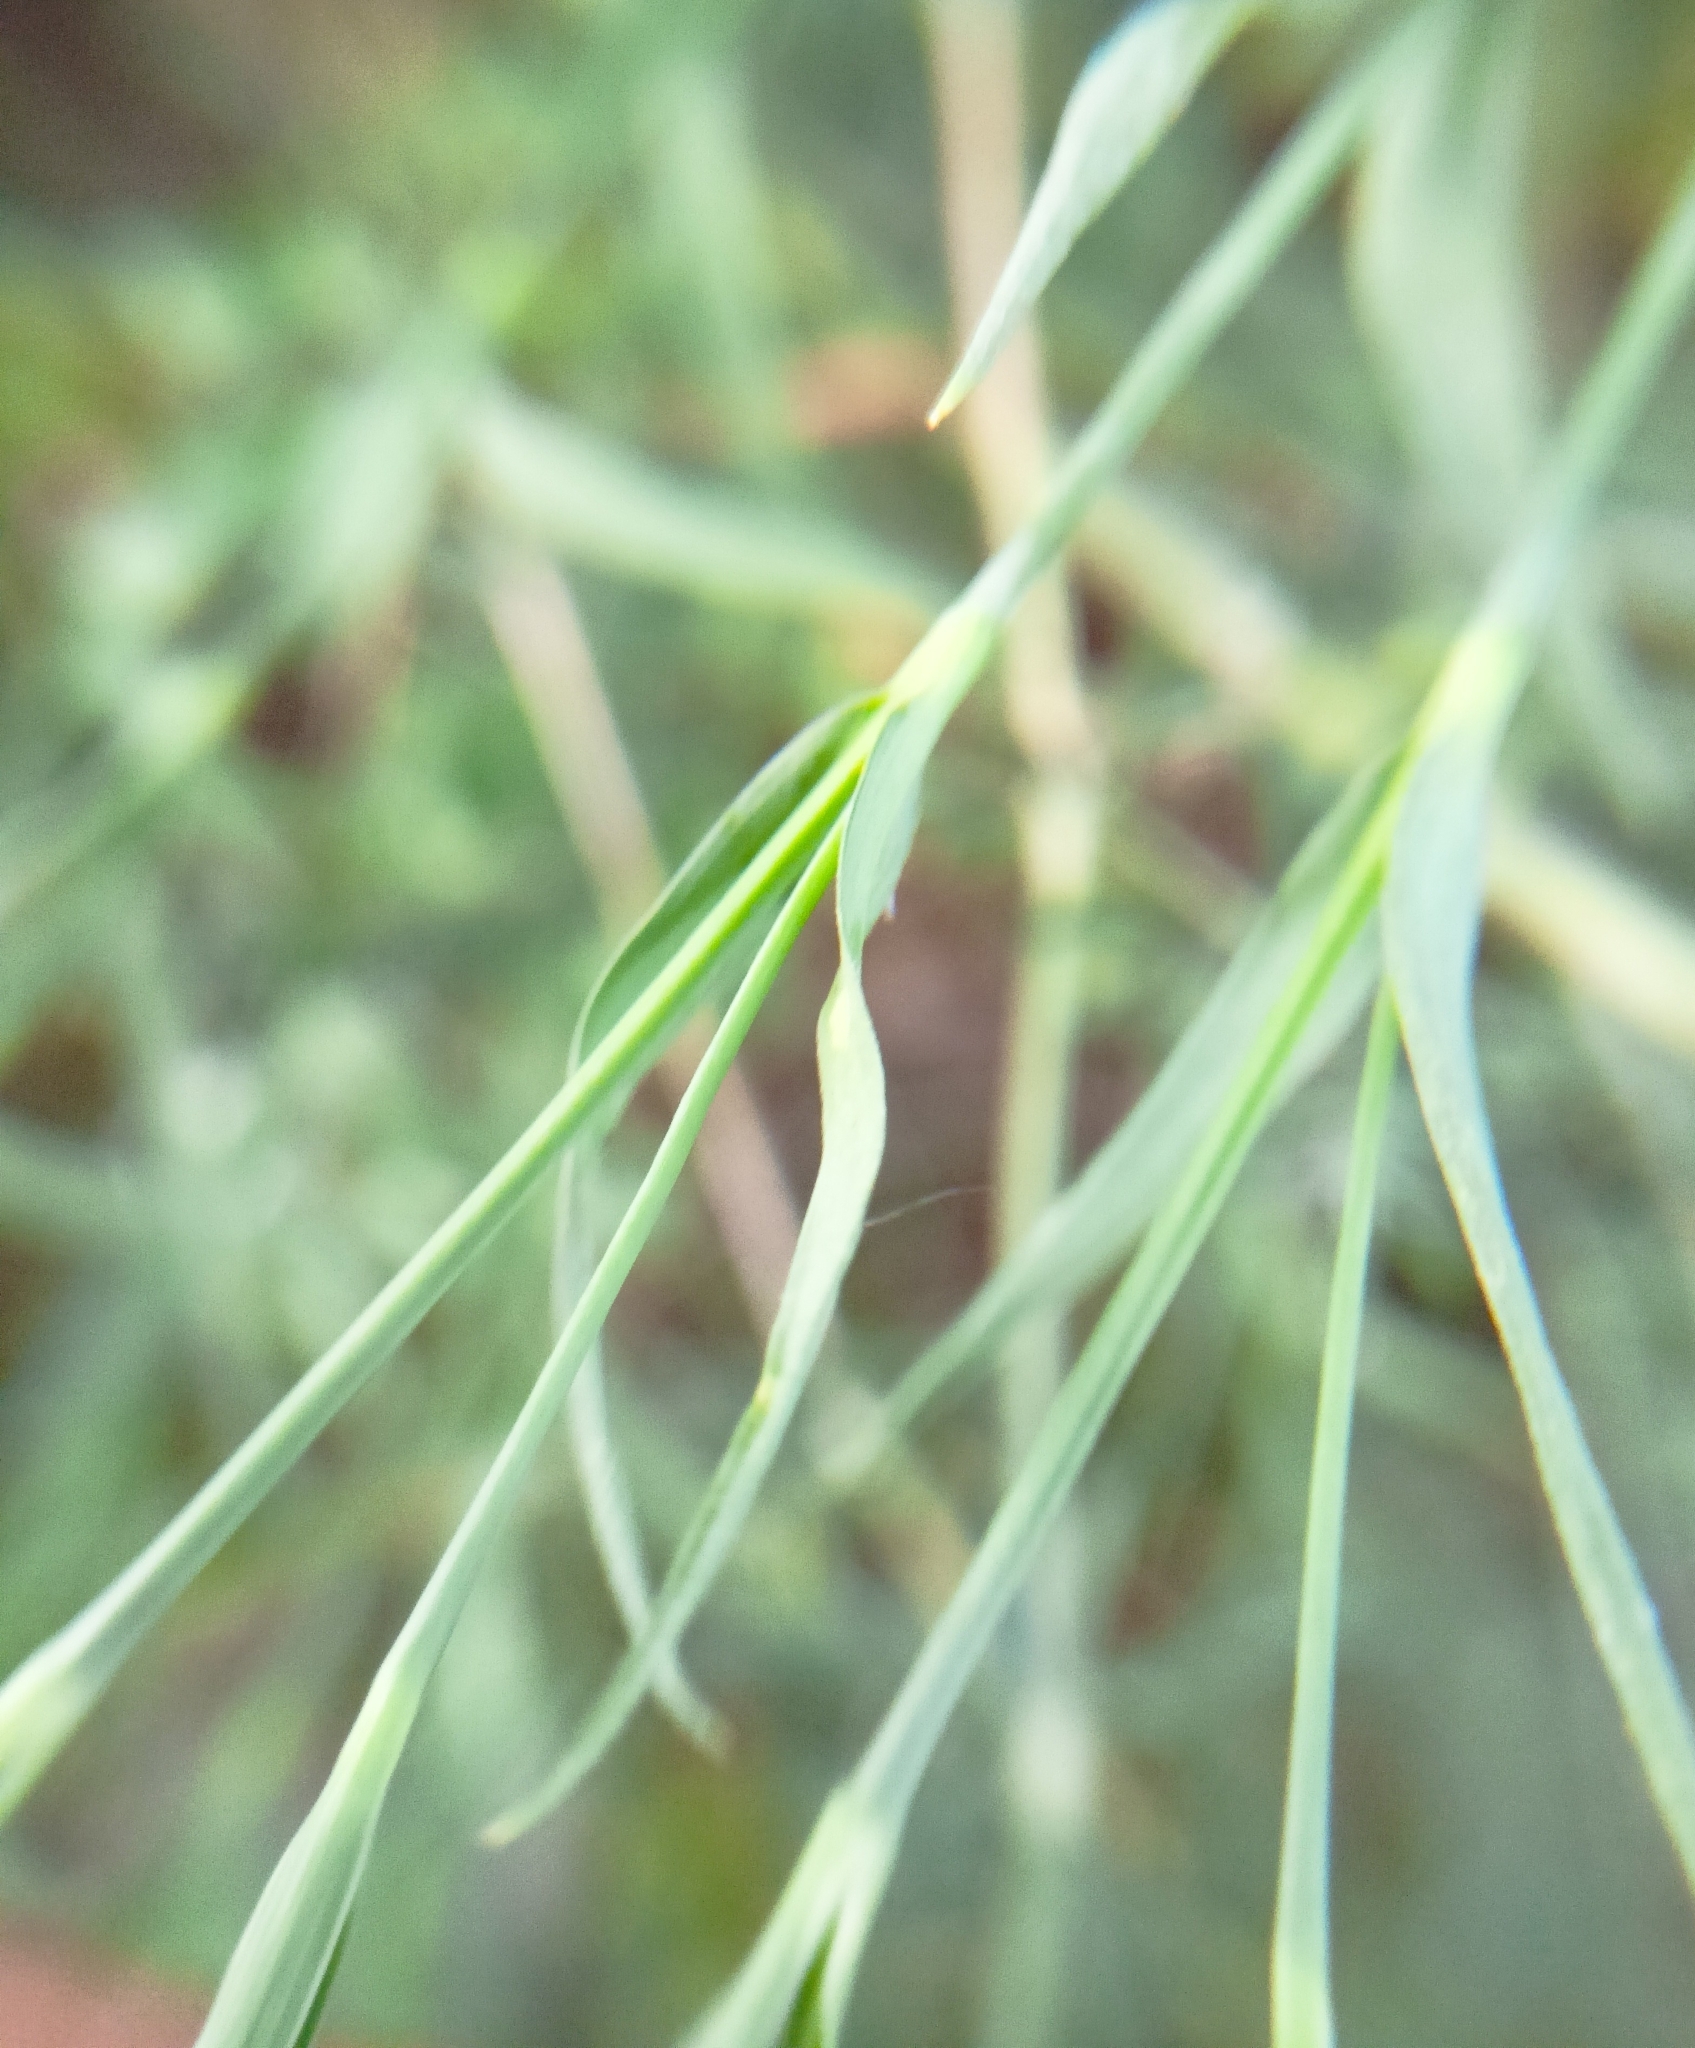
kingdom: Plantae
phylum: Tracheophyta
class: Magnoliopsida
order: Caryophyllales
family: Caryophyllaceae
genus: Dianthus
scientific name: Dianthus chinensis
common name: Rainbow pink
